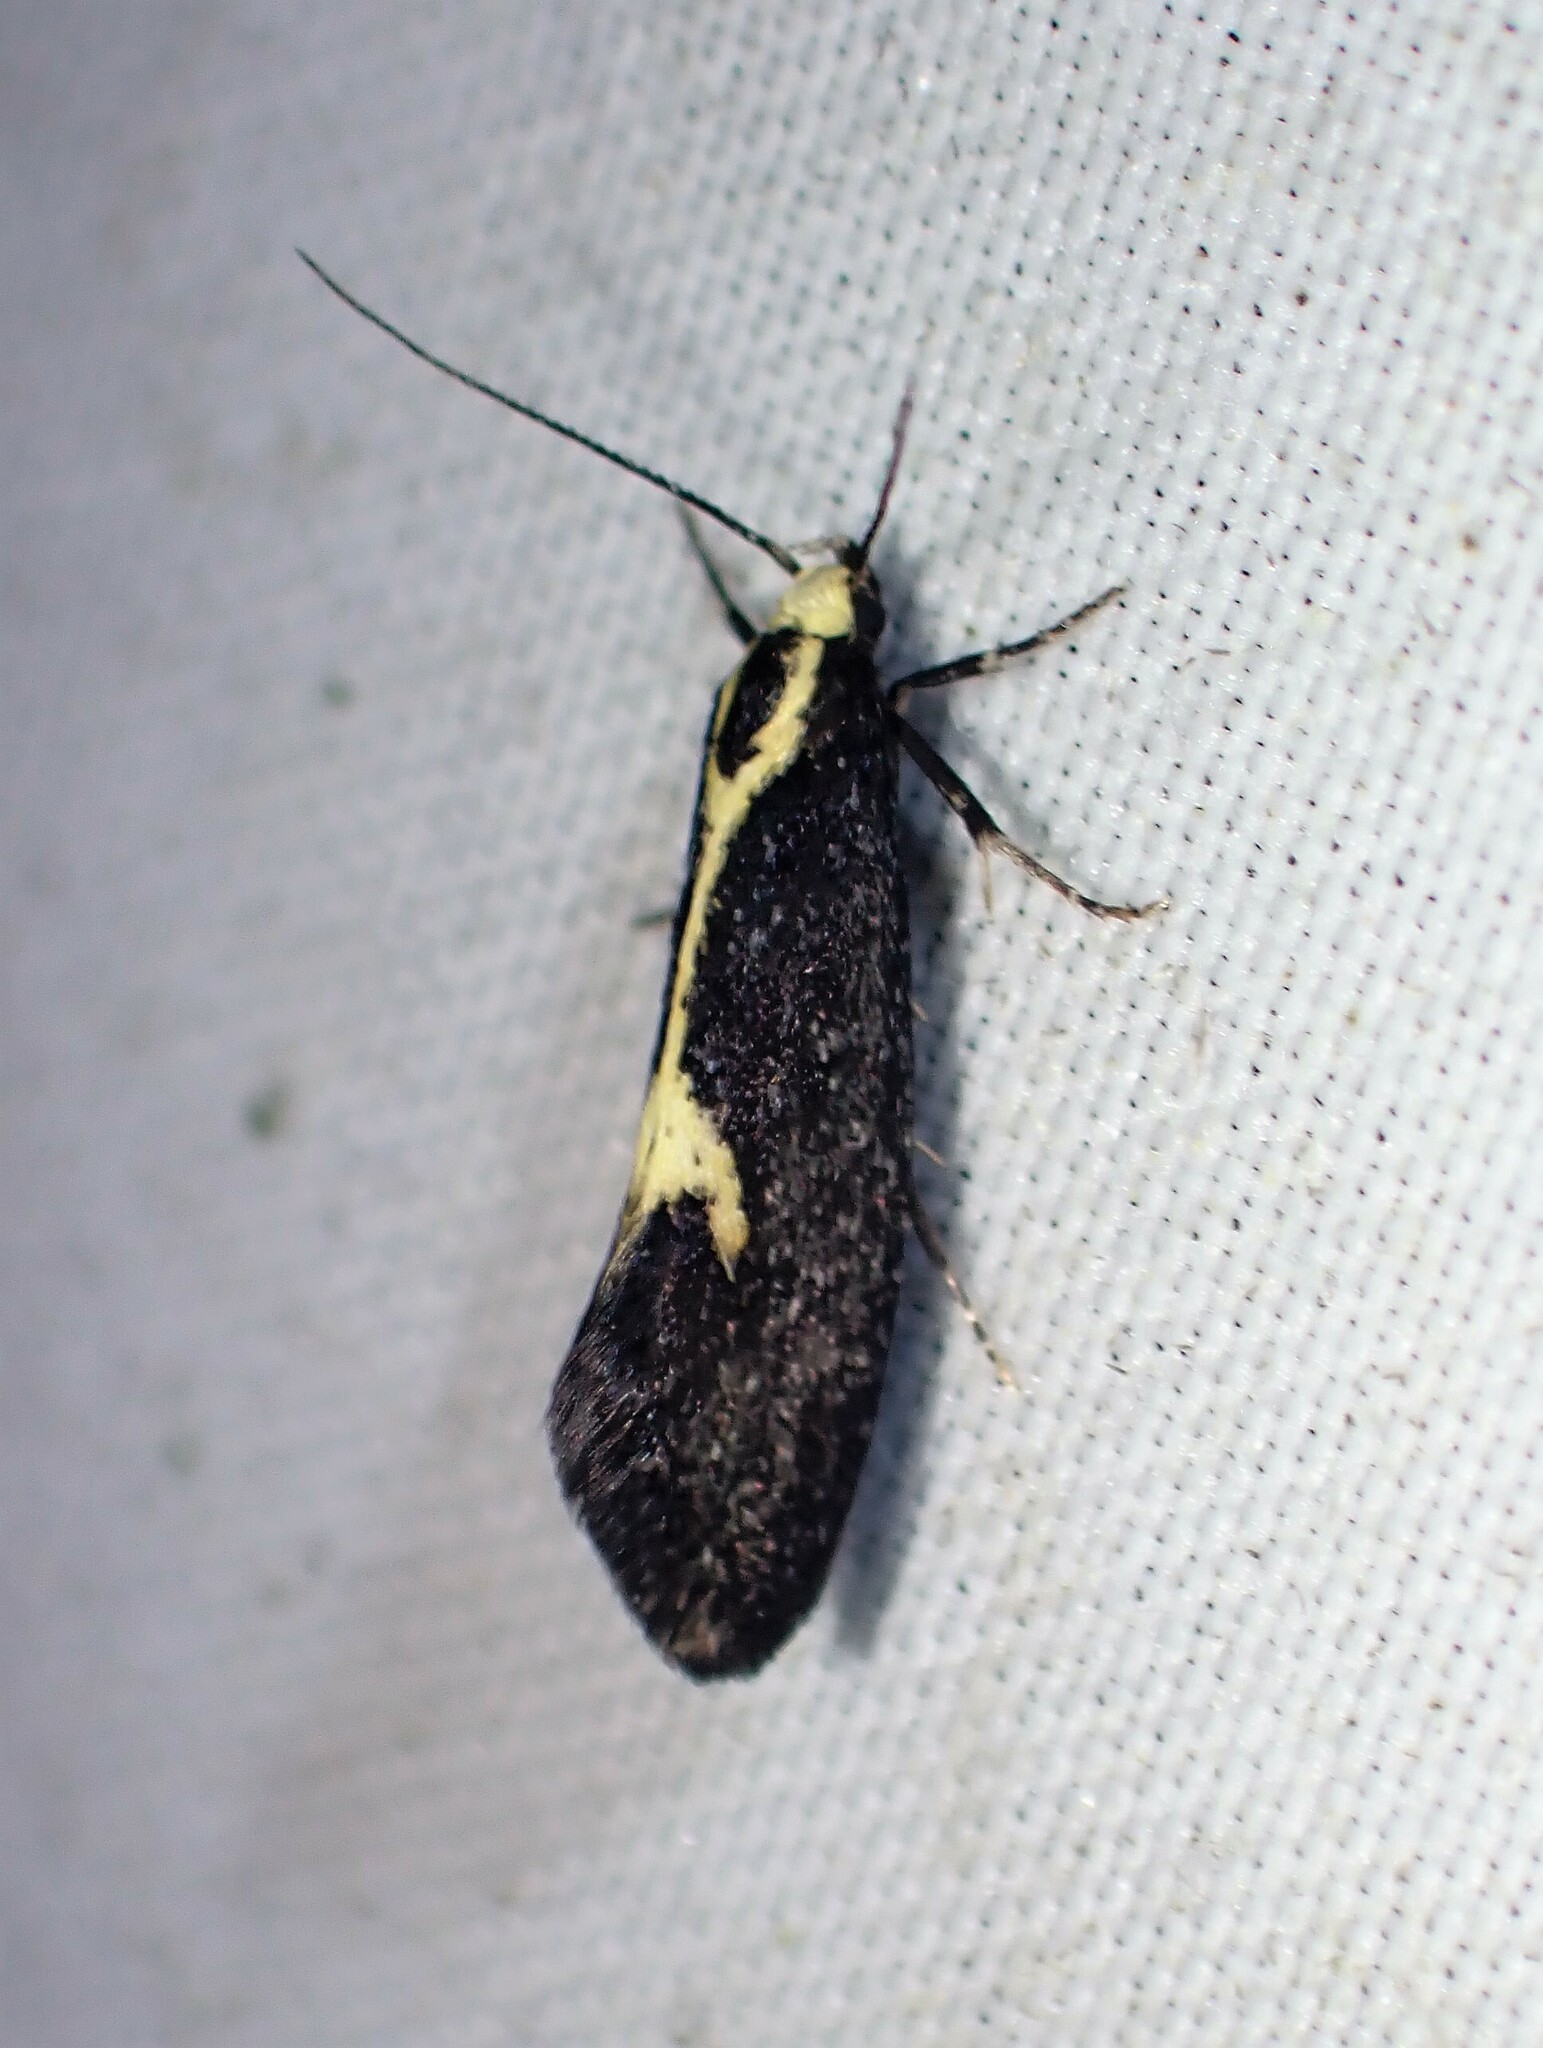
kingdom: Animalia
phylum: Arthropoda
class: Insecta
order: Lepidoptera
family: Oecophoridae
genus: Polix
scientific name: Polix coloradella
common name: Skunk moth
